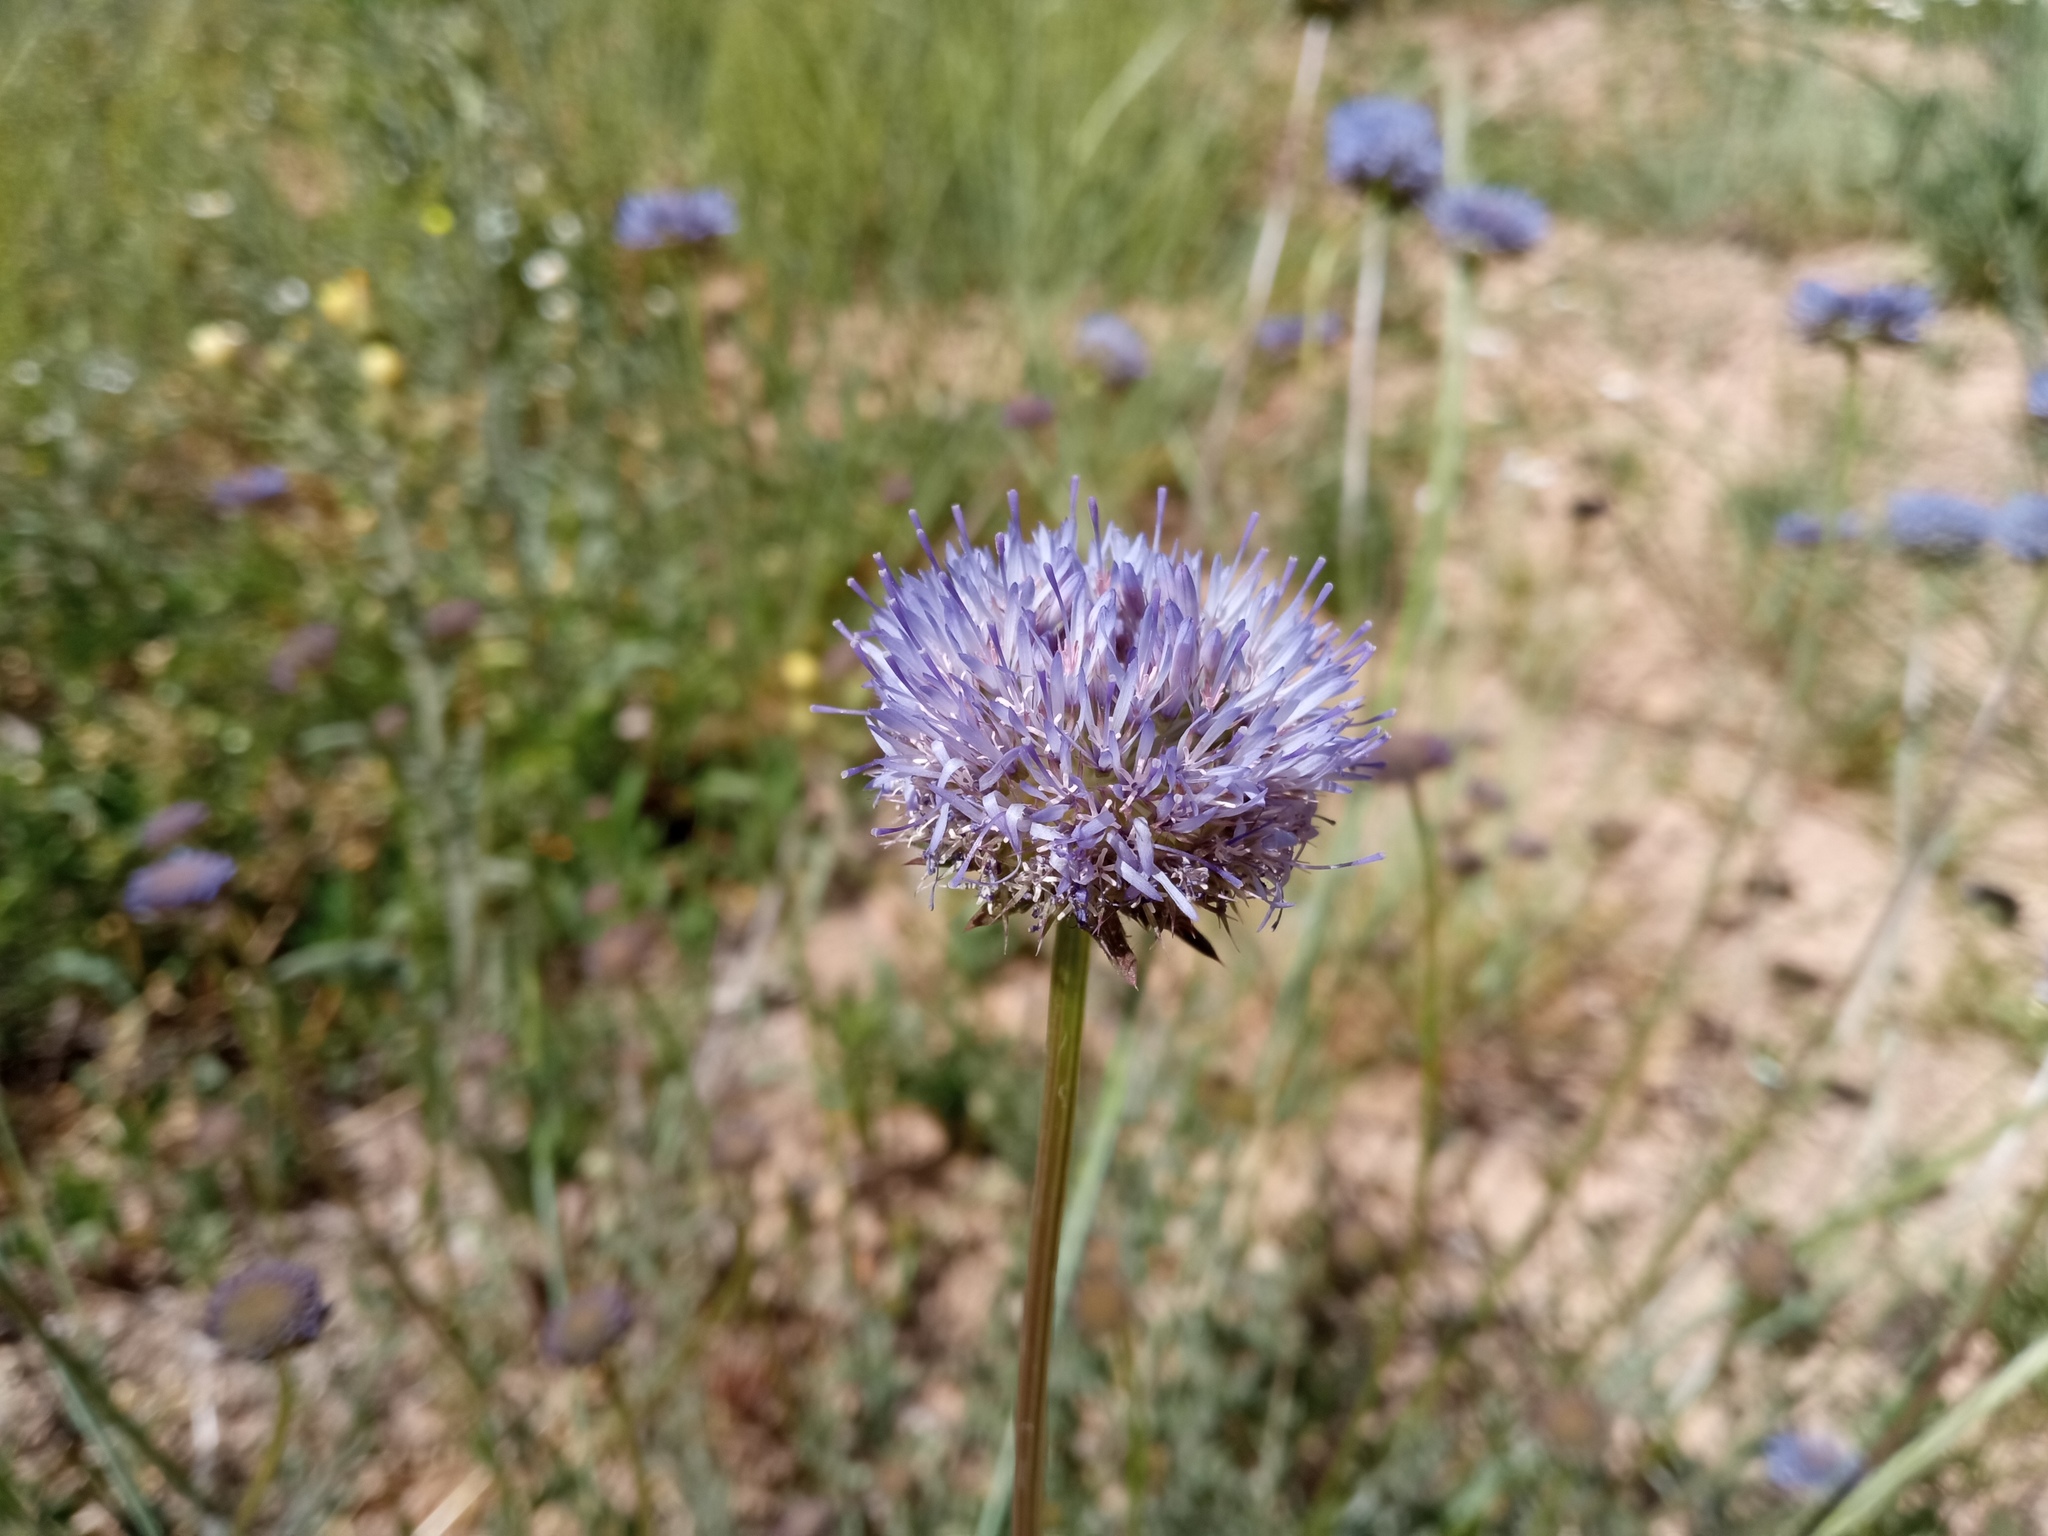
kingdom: Plantae
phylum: Tracheophyta
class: Magnoliopsida
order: Asterales
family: Campanulaceae
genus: Jasione
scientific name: Jasione montana
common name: Sheep's-bit
